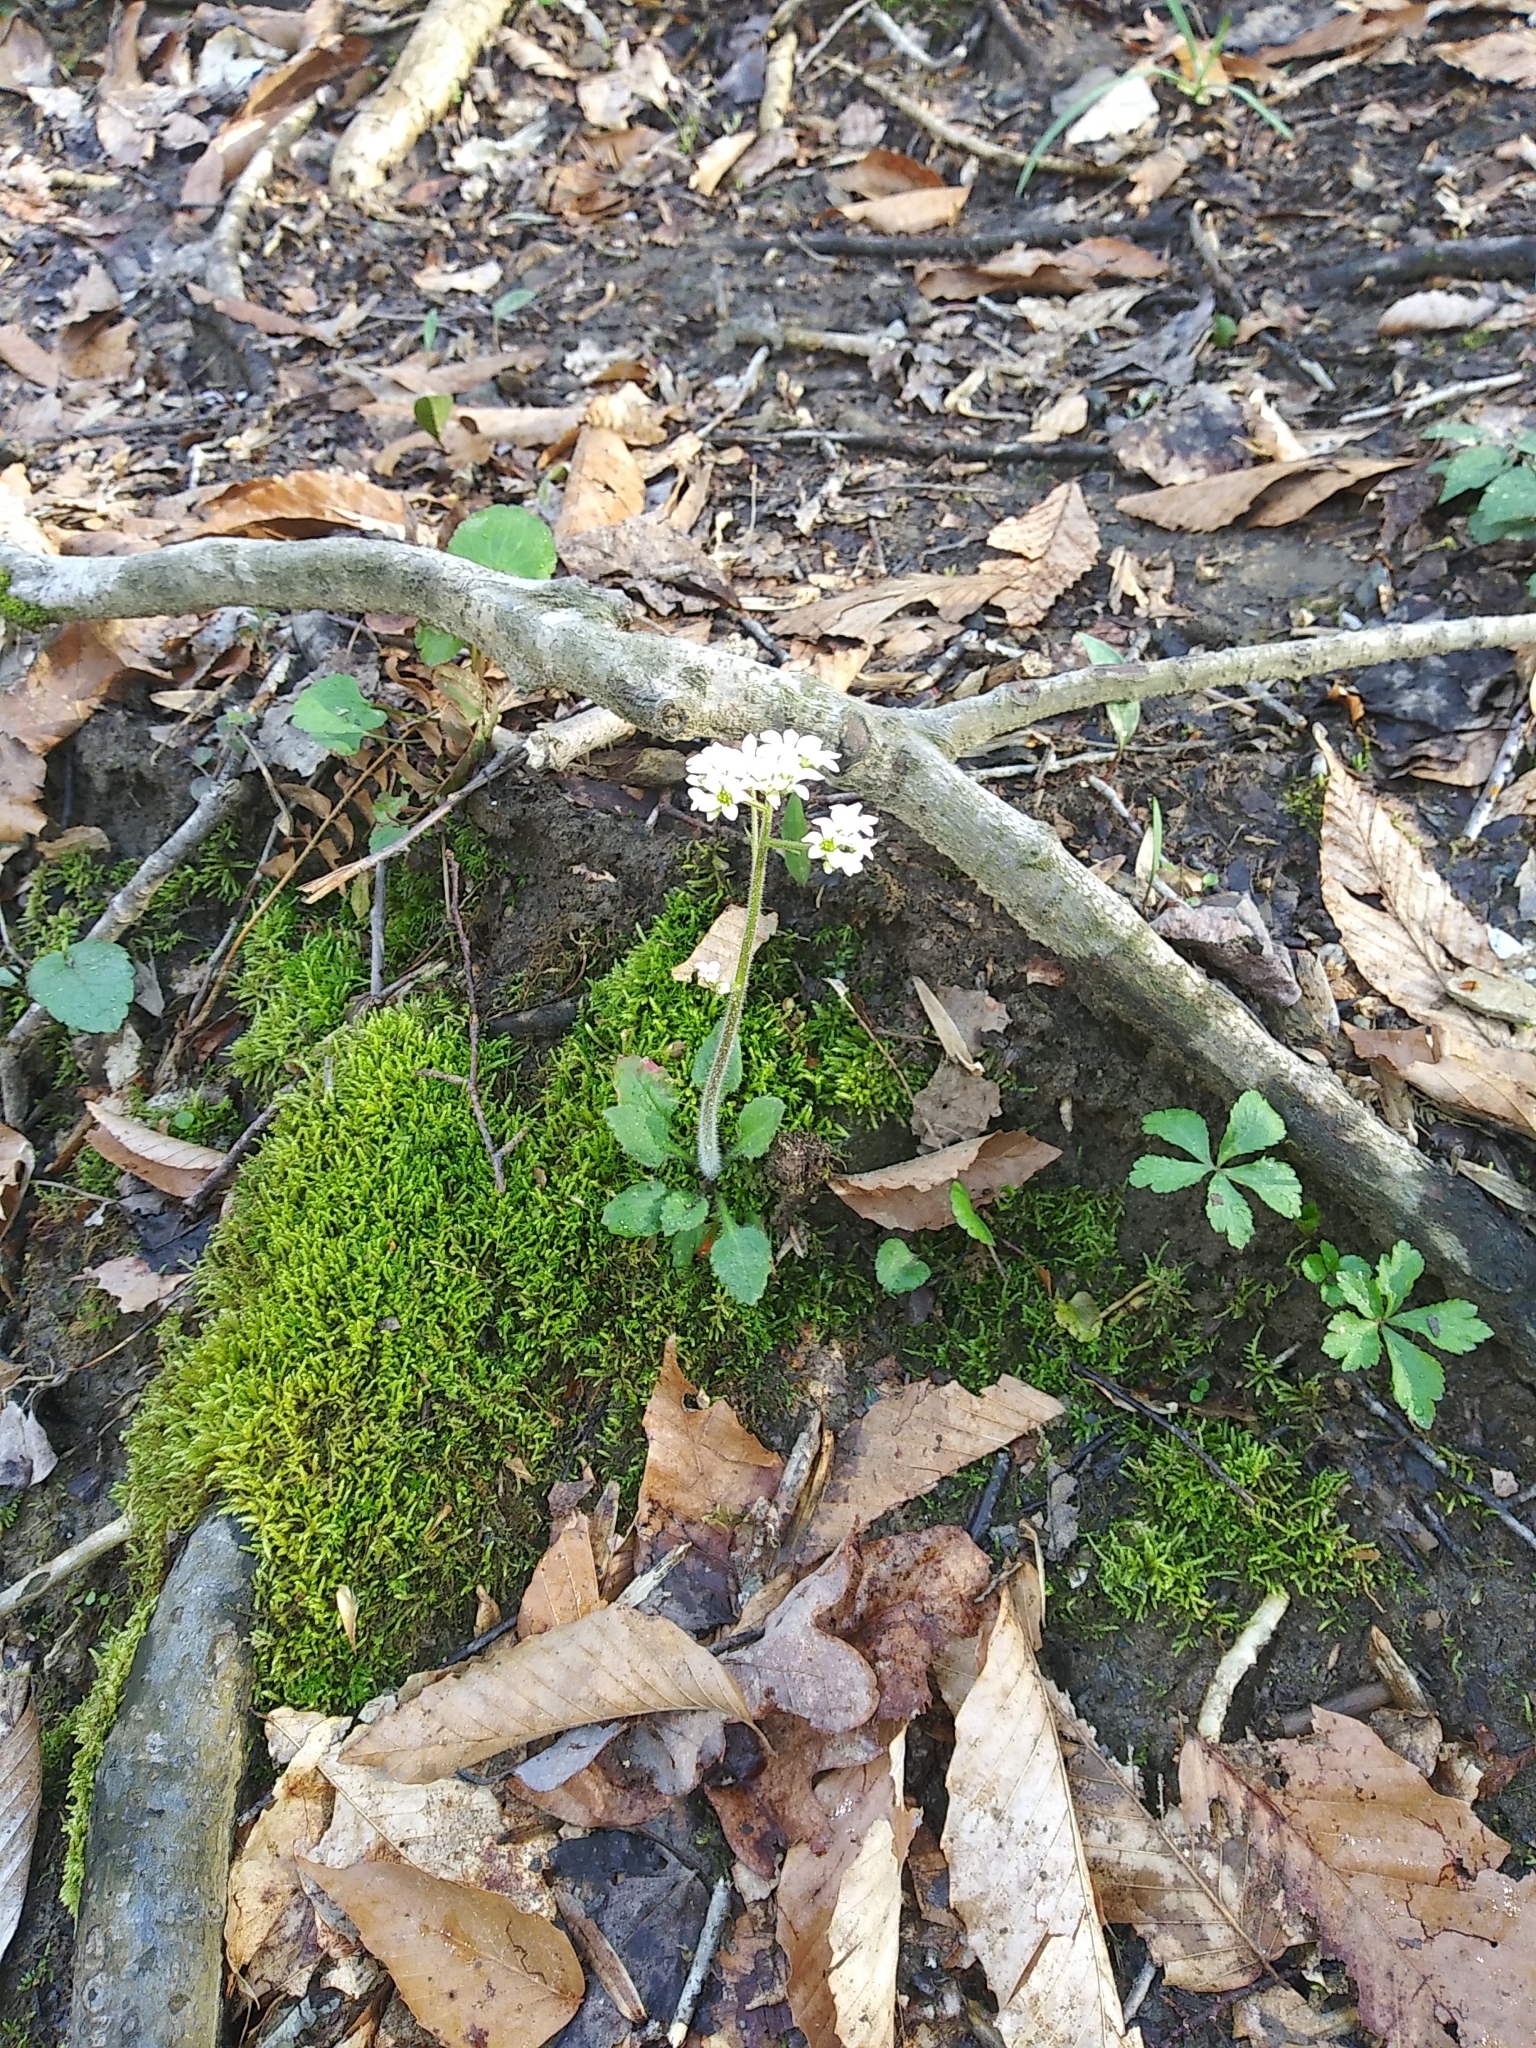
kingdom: Plantae
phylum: Tracheophyta
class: Magnoliopsida
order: Saxifragales
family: Saxifragaceae
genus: Micranthes
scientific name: Micranthes virginiensis
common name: Early saxifrage
